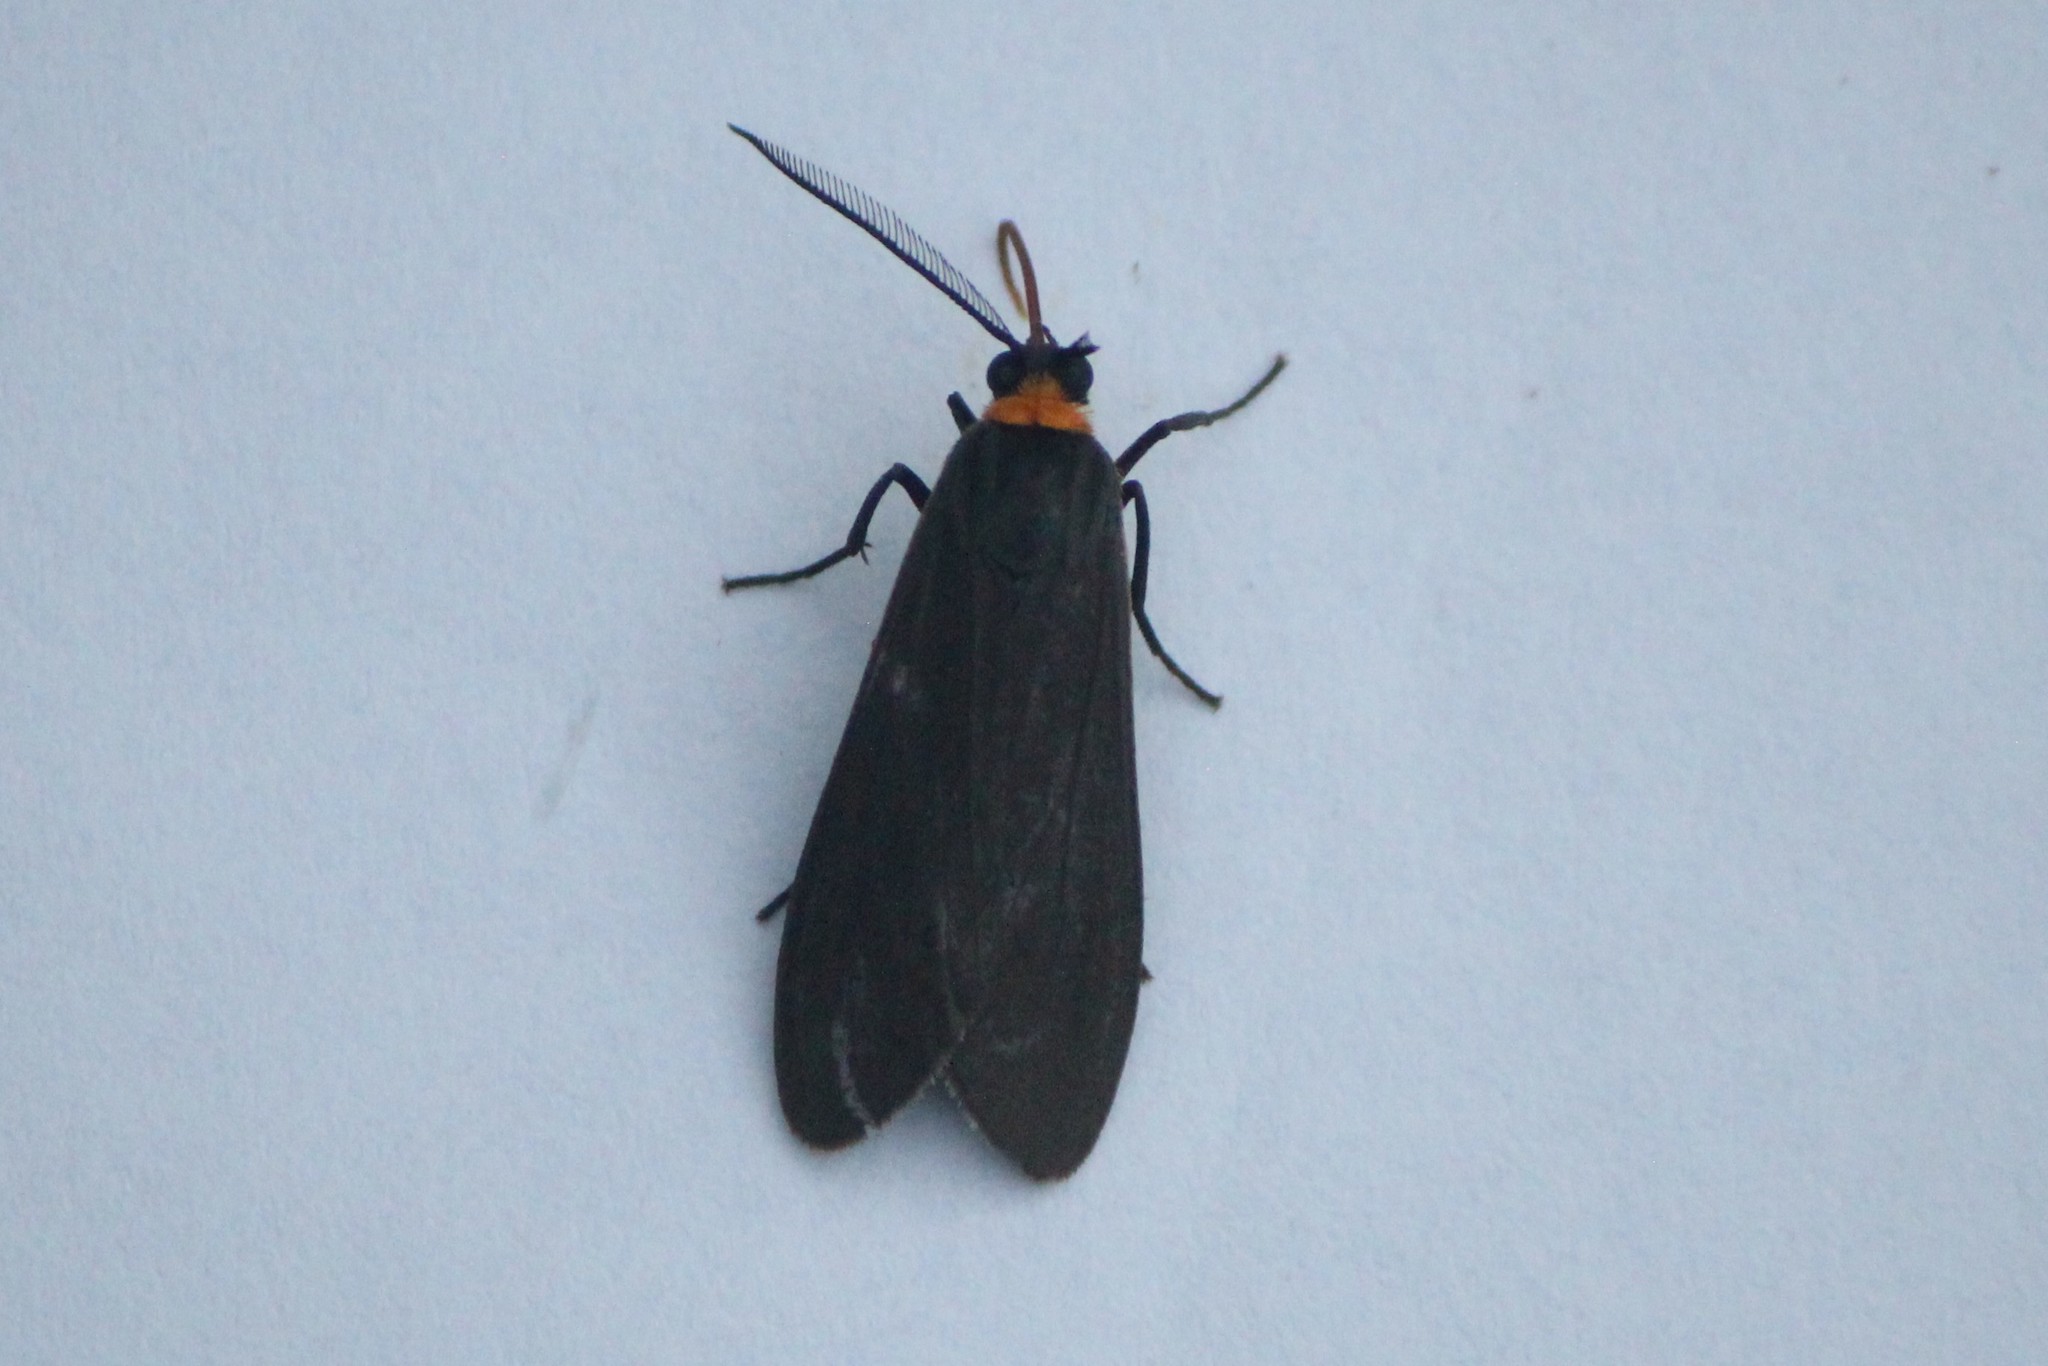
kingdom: Animalia
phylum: Arthropoda
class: Insecta
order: Lepidoptera
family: Erebidae
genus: Cisseps
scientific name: Cisseps fulvicollis
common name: Yellow-collared scape moth
